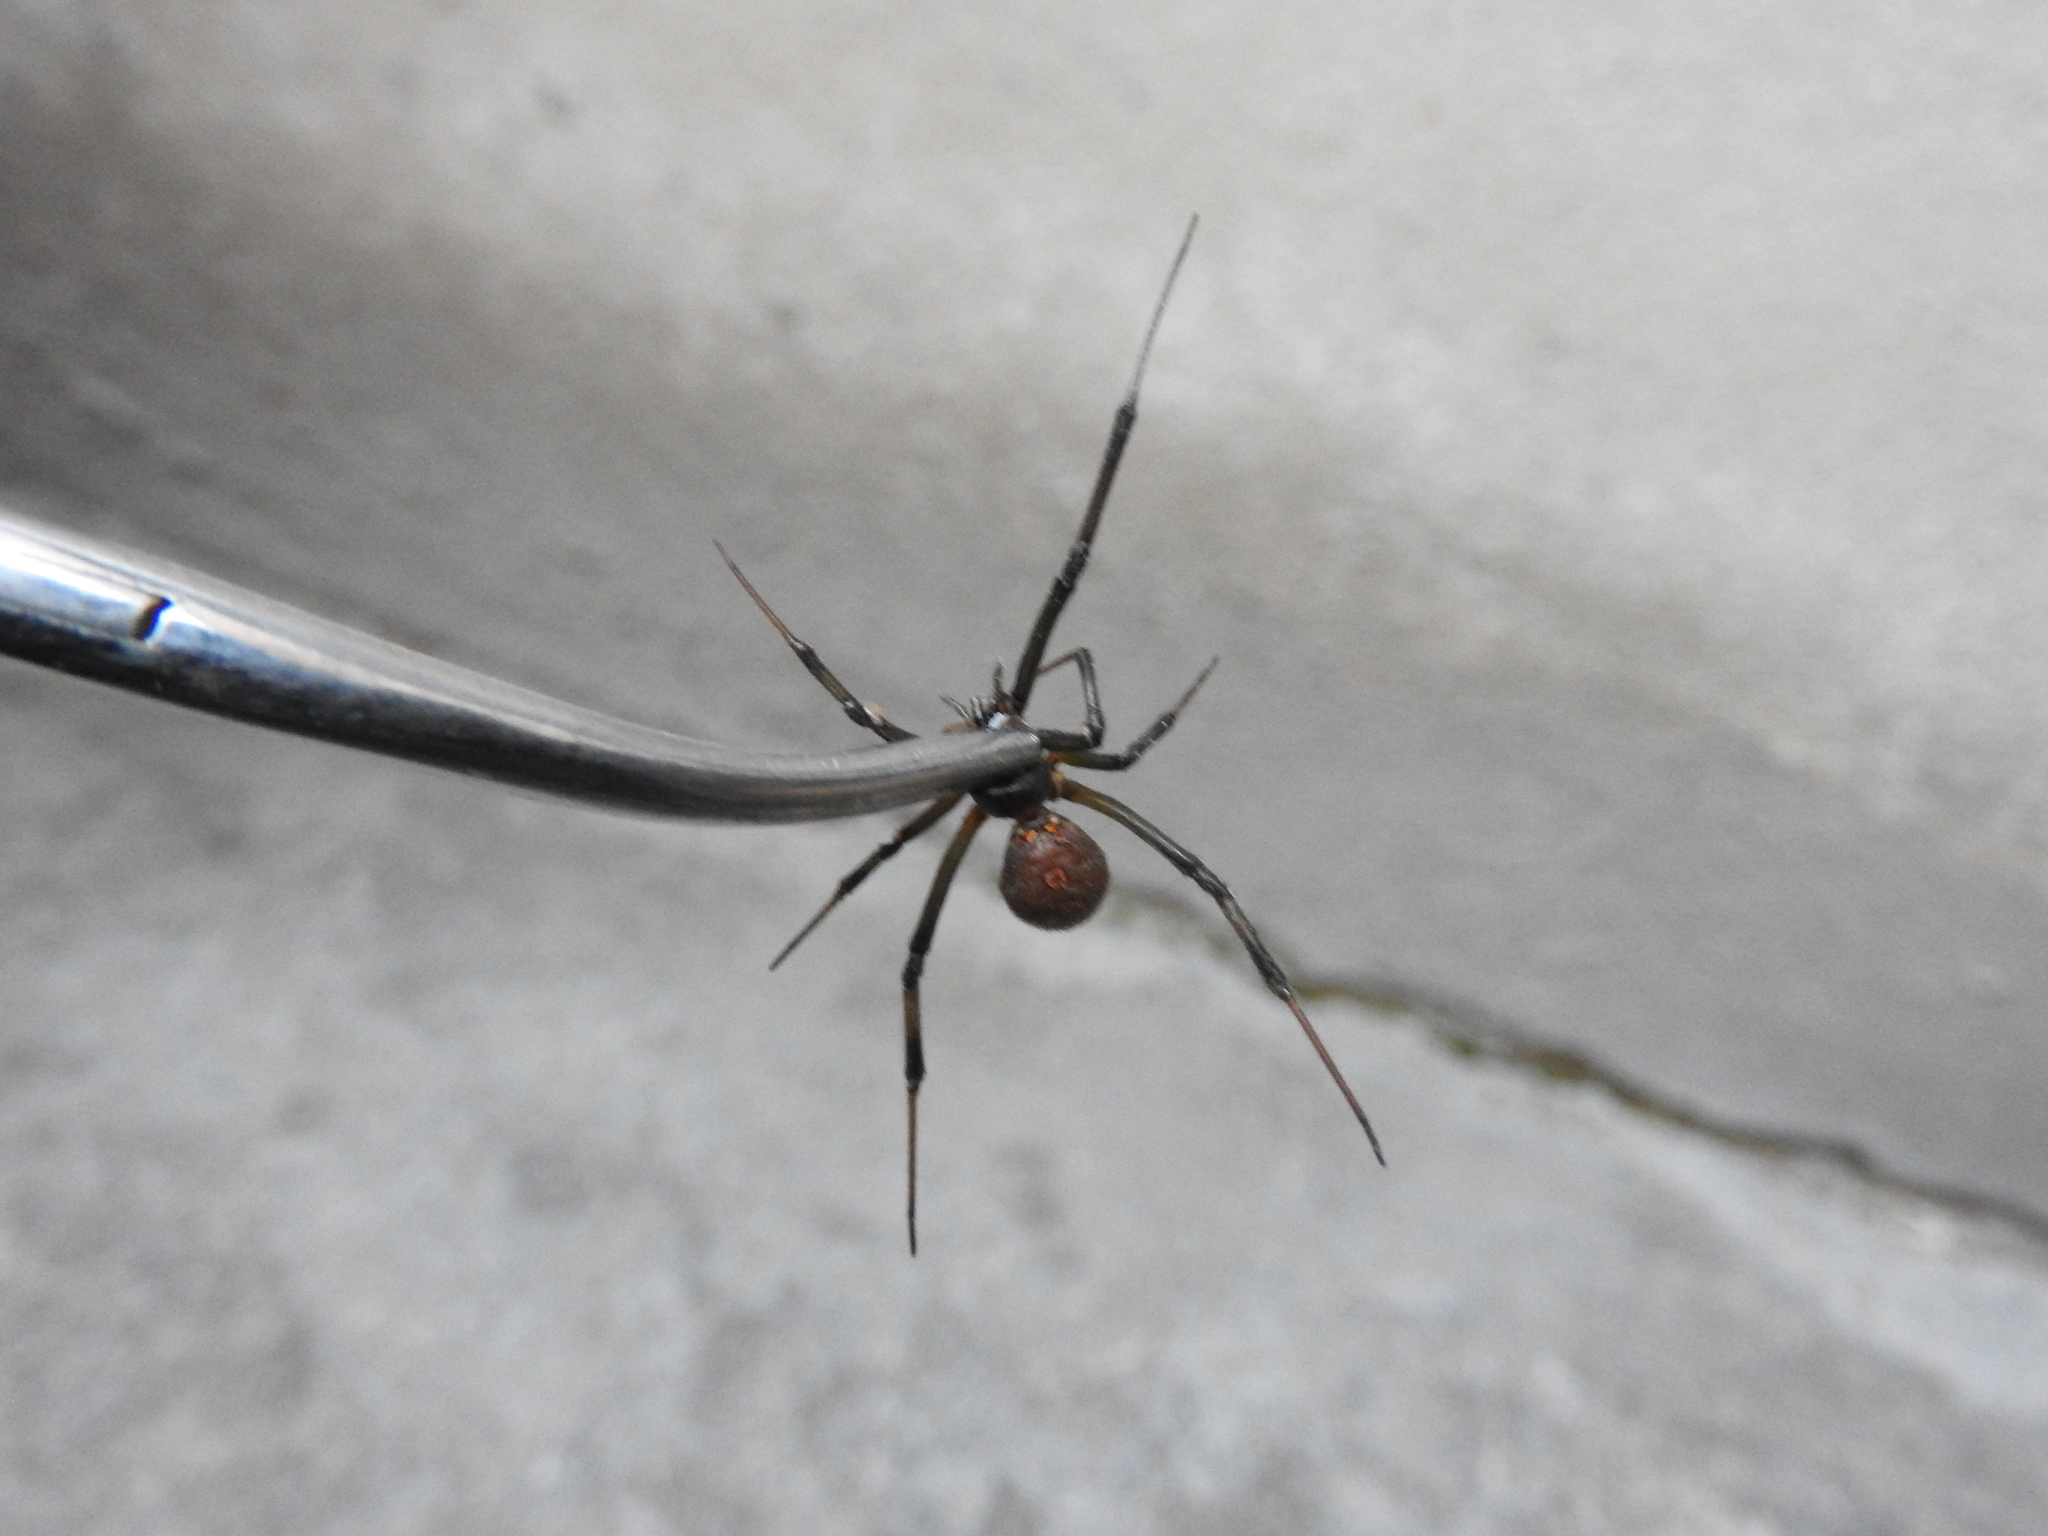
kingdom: Animalia
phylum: Arthropoda
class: Arachnida
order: Araneae
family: Theridiidae
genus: Latrodectus
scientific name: Latrodectus geometricus
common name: Brown widow spider
